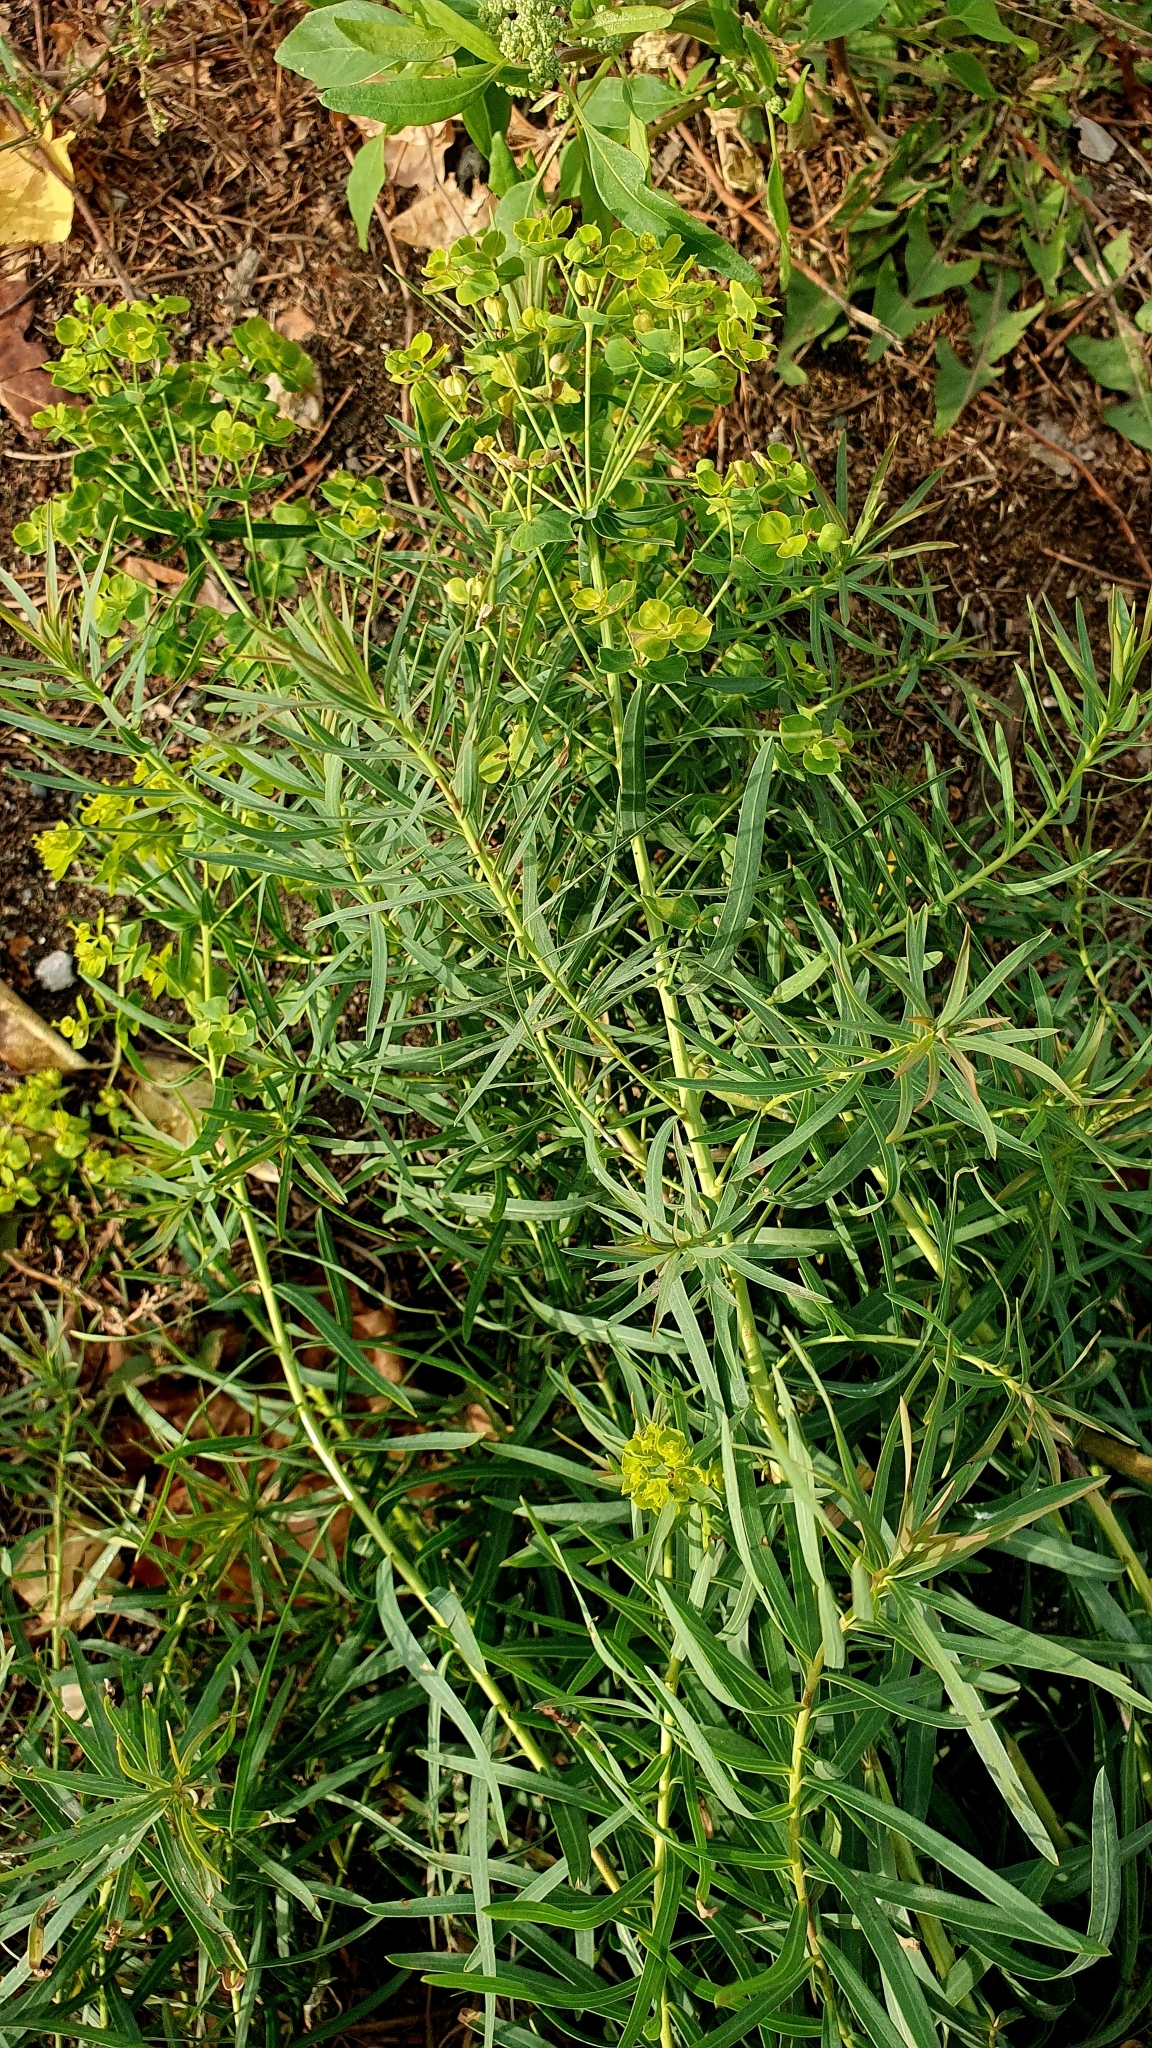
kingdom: Plantae
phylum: Tracheophyta
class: Magnoliopsida
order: Malpighiales
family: Euphorbiaceae
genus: Euphorbia
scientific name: Euphorbia virgata
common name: Leafy spurge
